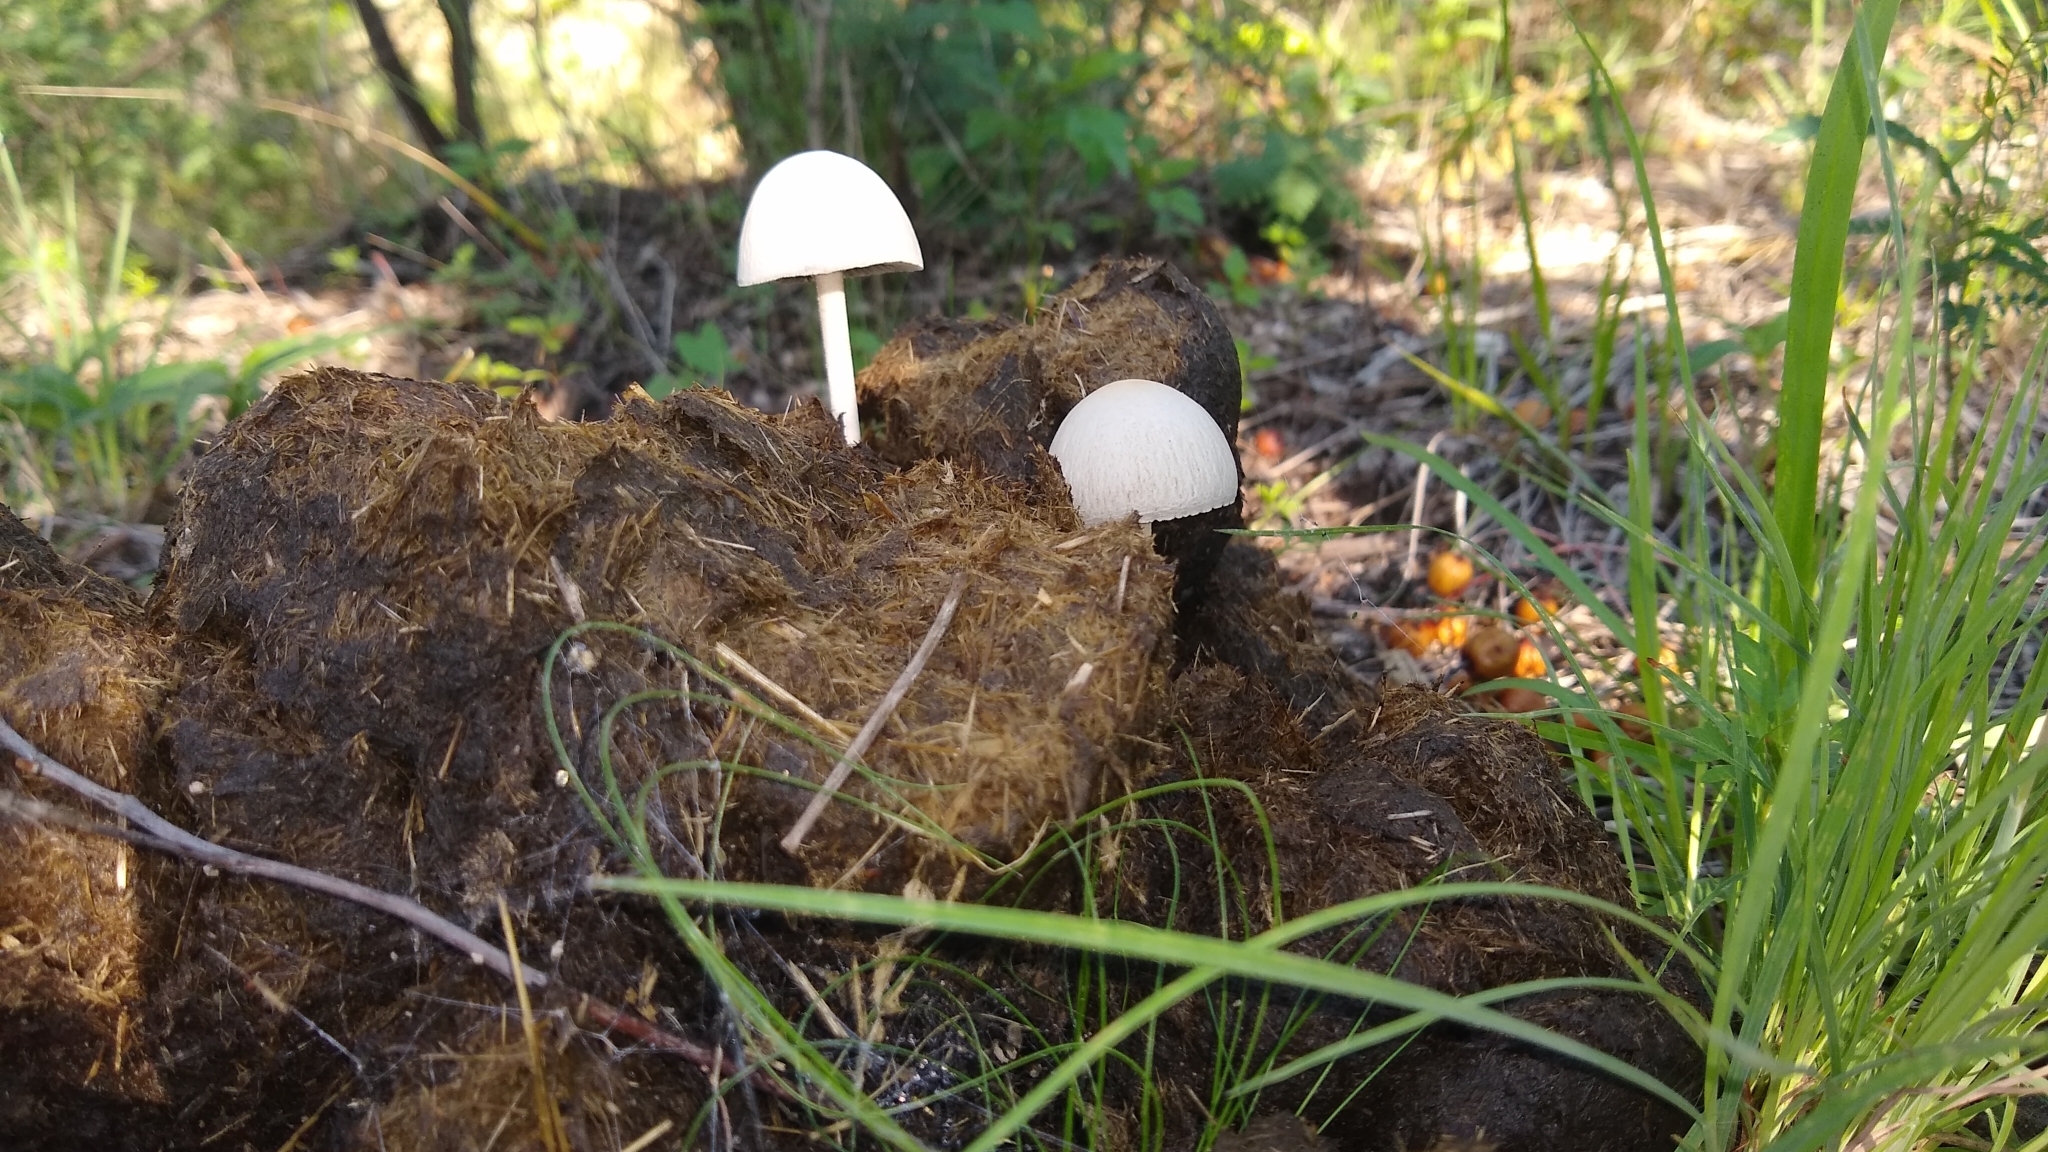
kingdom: Fungi
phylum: Basidiomycota
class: Agaricomycetes
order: Agaricales
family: Bolbitiaceae
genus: Panaeolus
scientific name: Panaeolus antillarum
